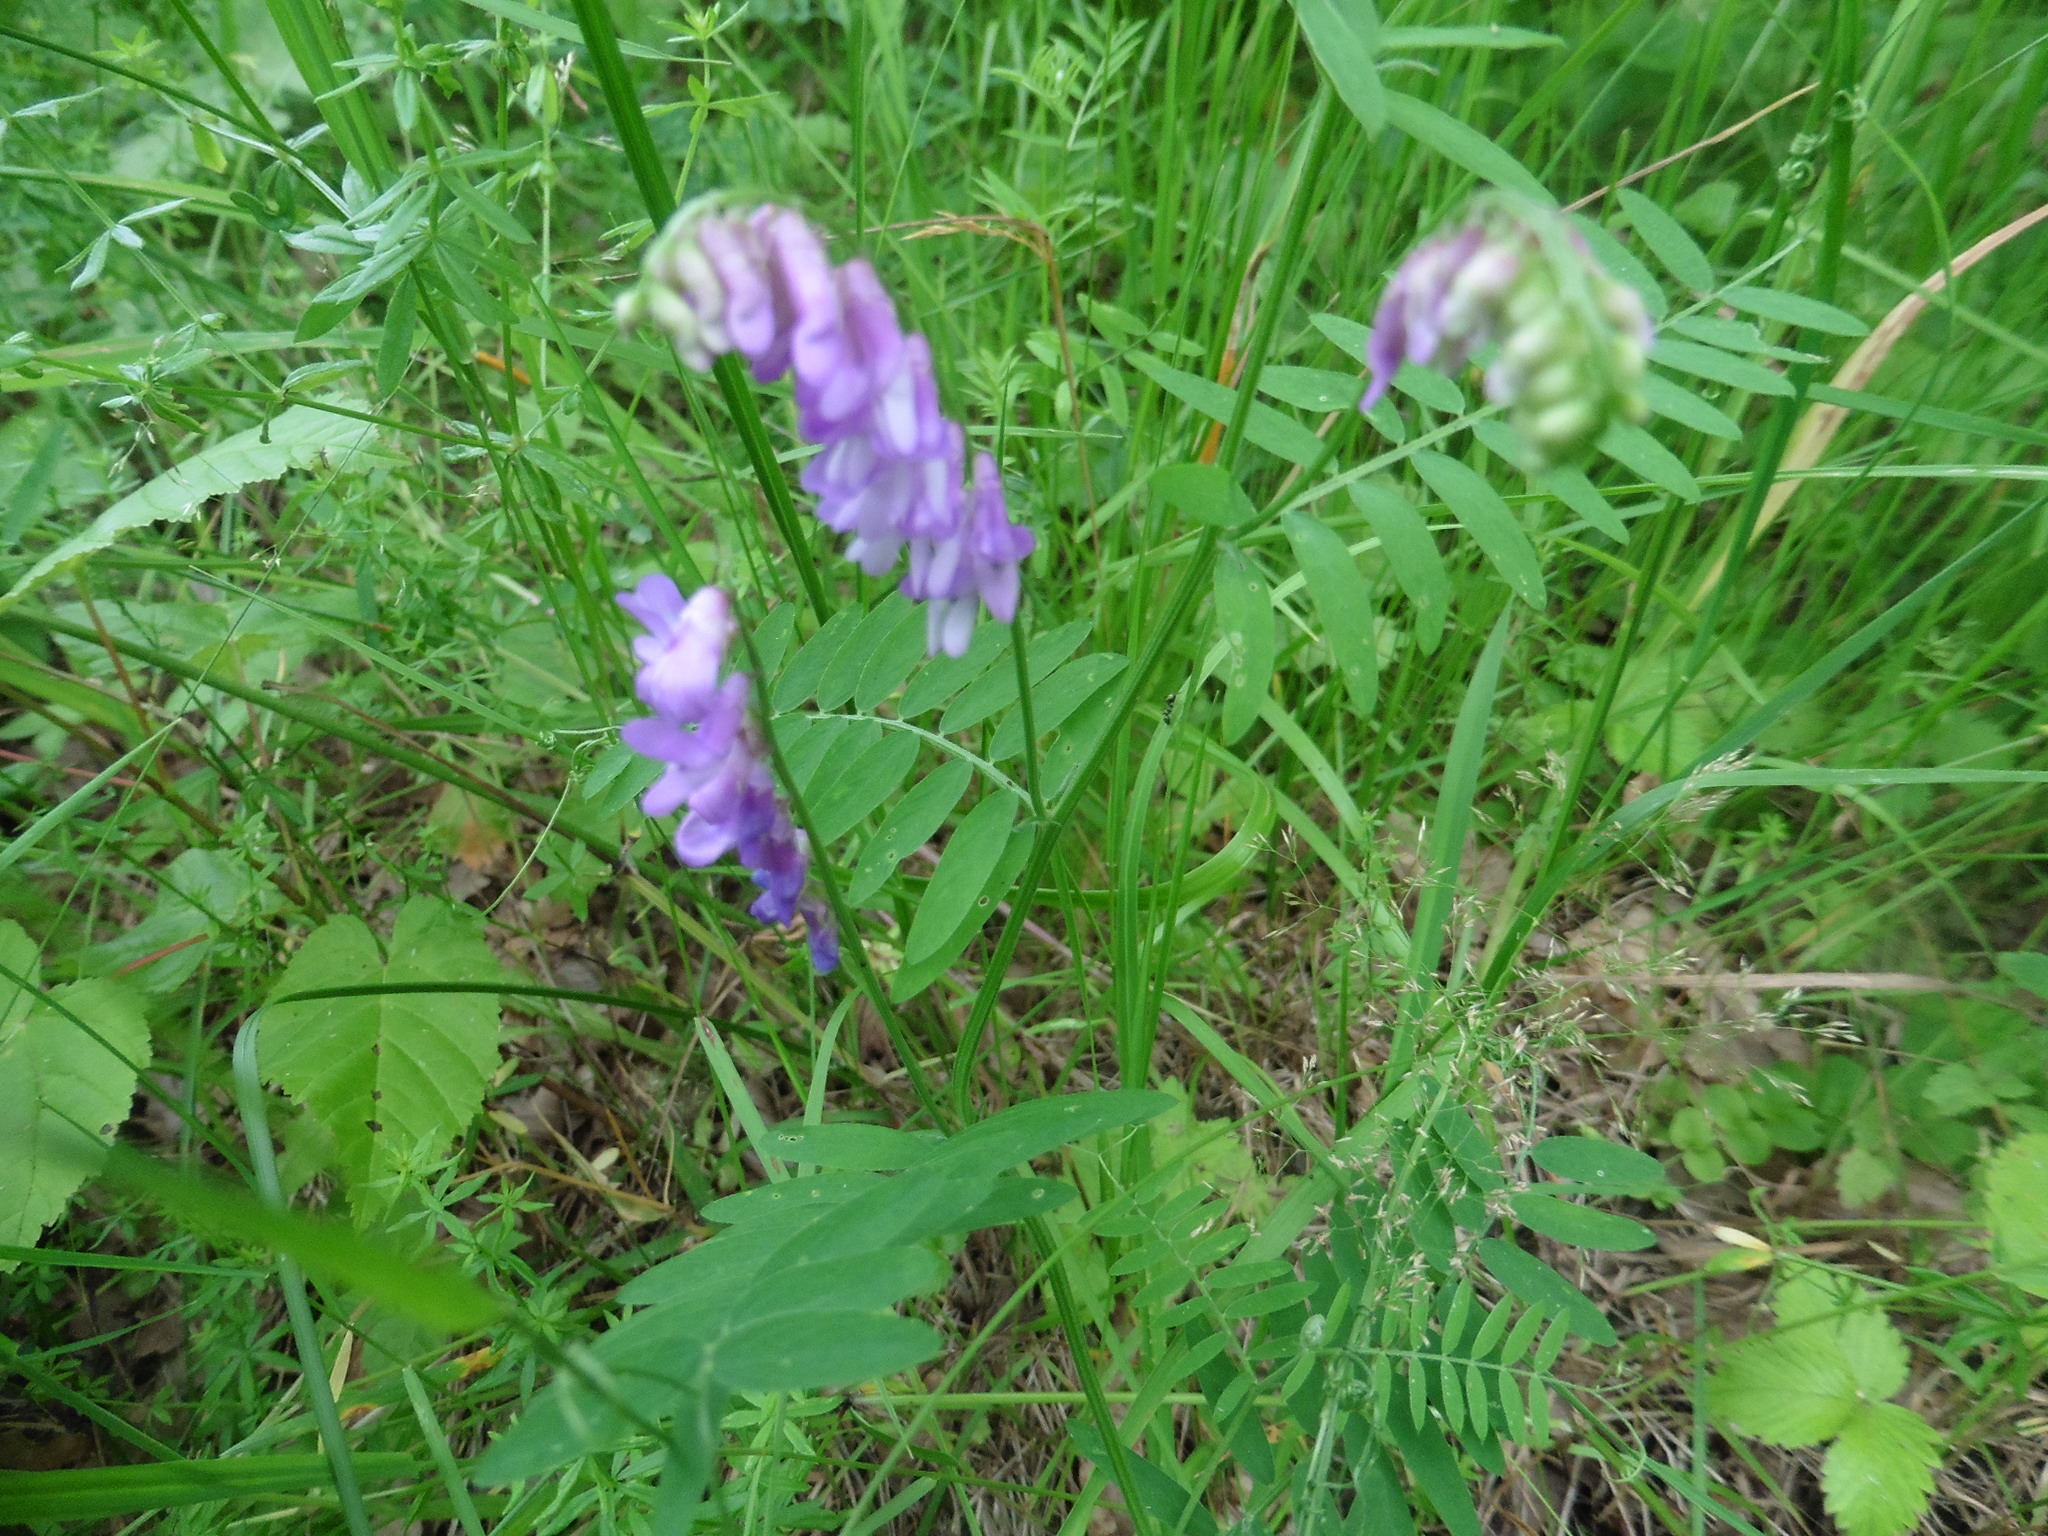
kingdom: Plantae
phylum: Tracheophyta
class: Magnoliopsida
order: Fabales
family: Fabaceae
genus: Vicia
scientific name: Vicia cracca
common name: Bird vetch
